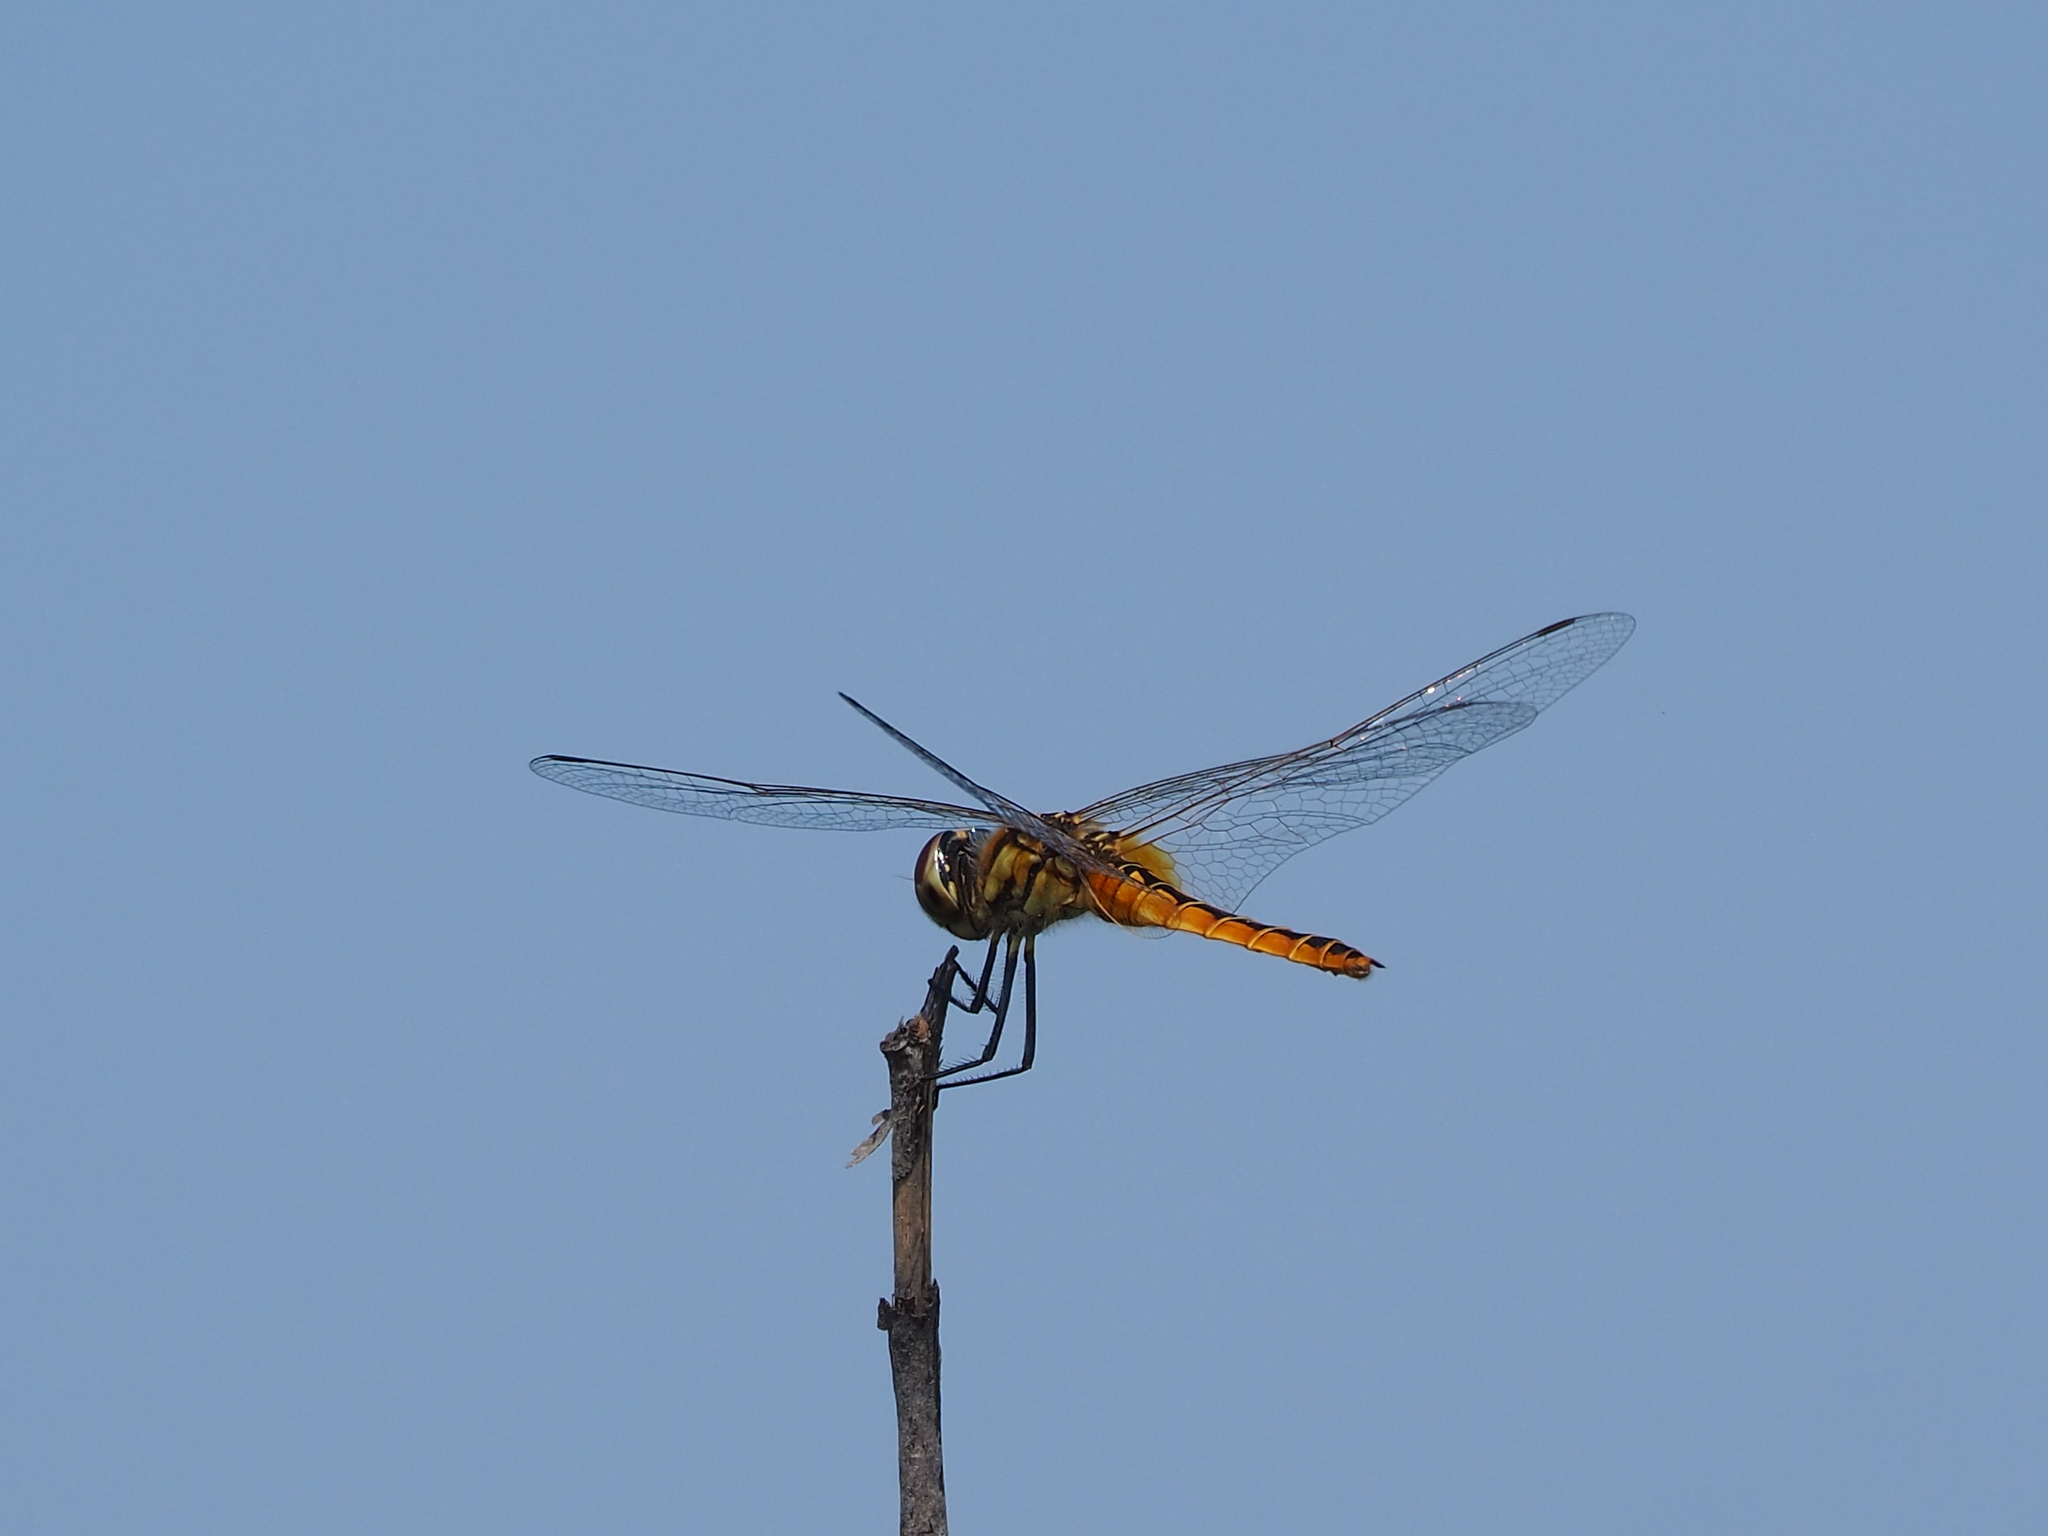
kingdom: Animalia
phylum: Arthropoda
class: Insecta
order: Odonata
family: Libellulidae
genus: Macrodiplax
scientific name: Macrodiplax cora
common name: Coastal glider
